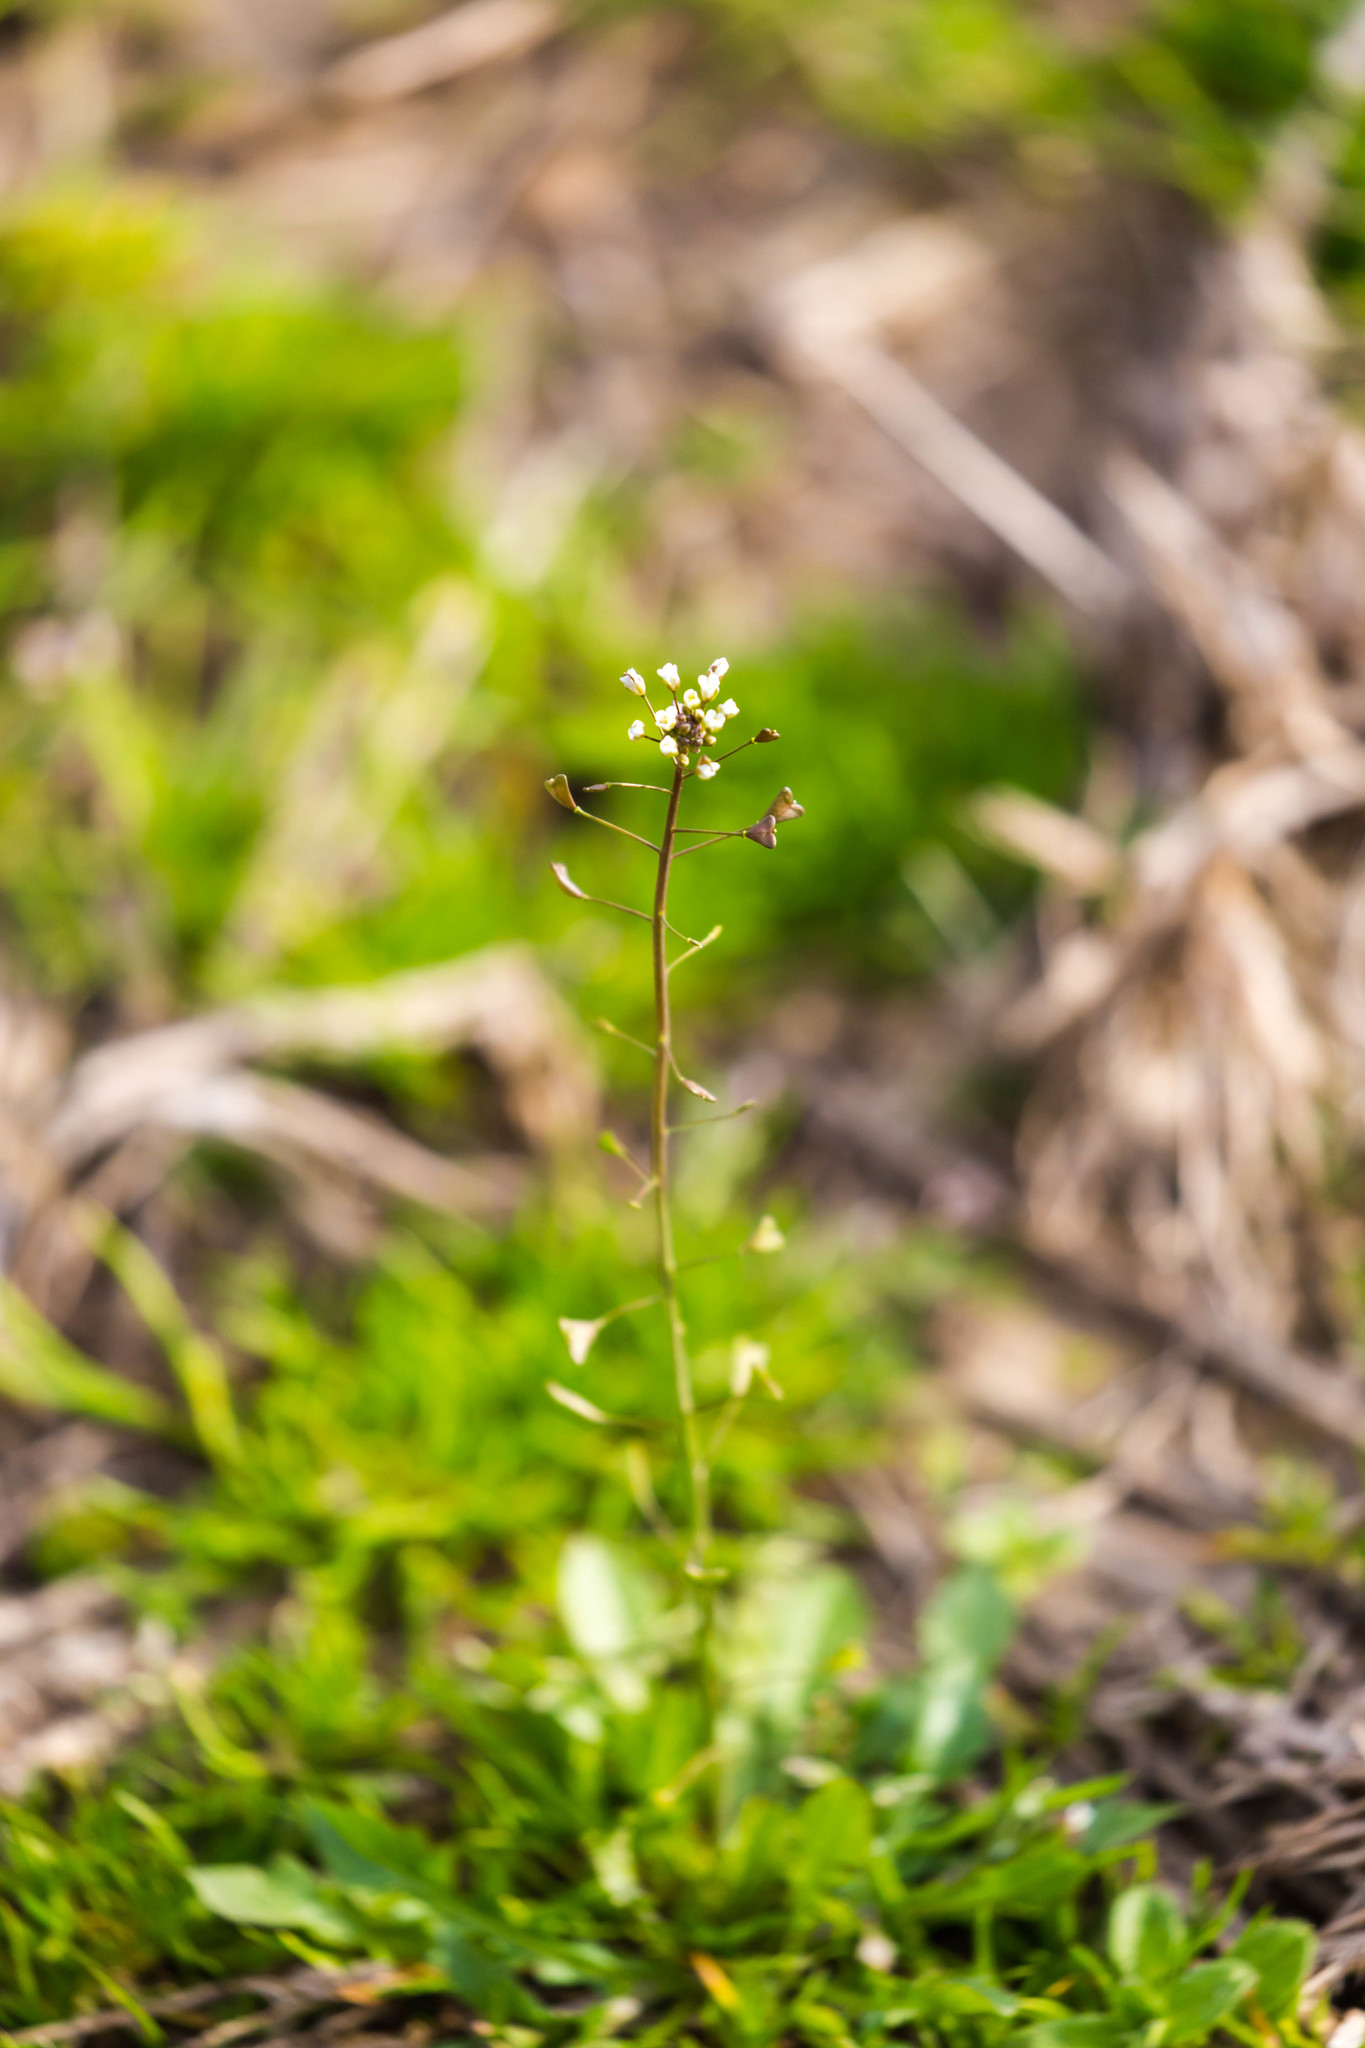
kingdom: Plantae
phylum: Tracheophyta
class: Magnoliopsida
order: Brassicales
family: Brassicaceae
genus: Capsella
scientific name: Capsella bursa-pastoris
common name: Shepherd's purse
